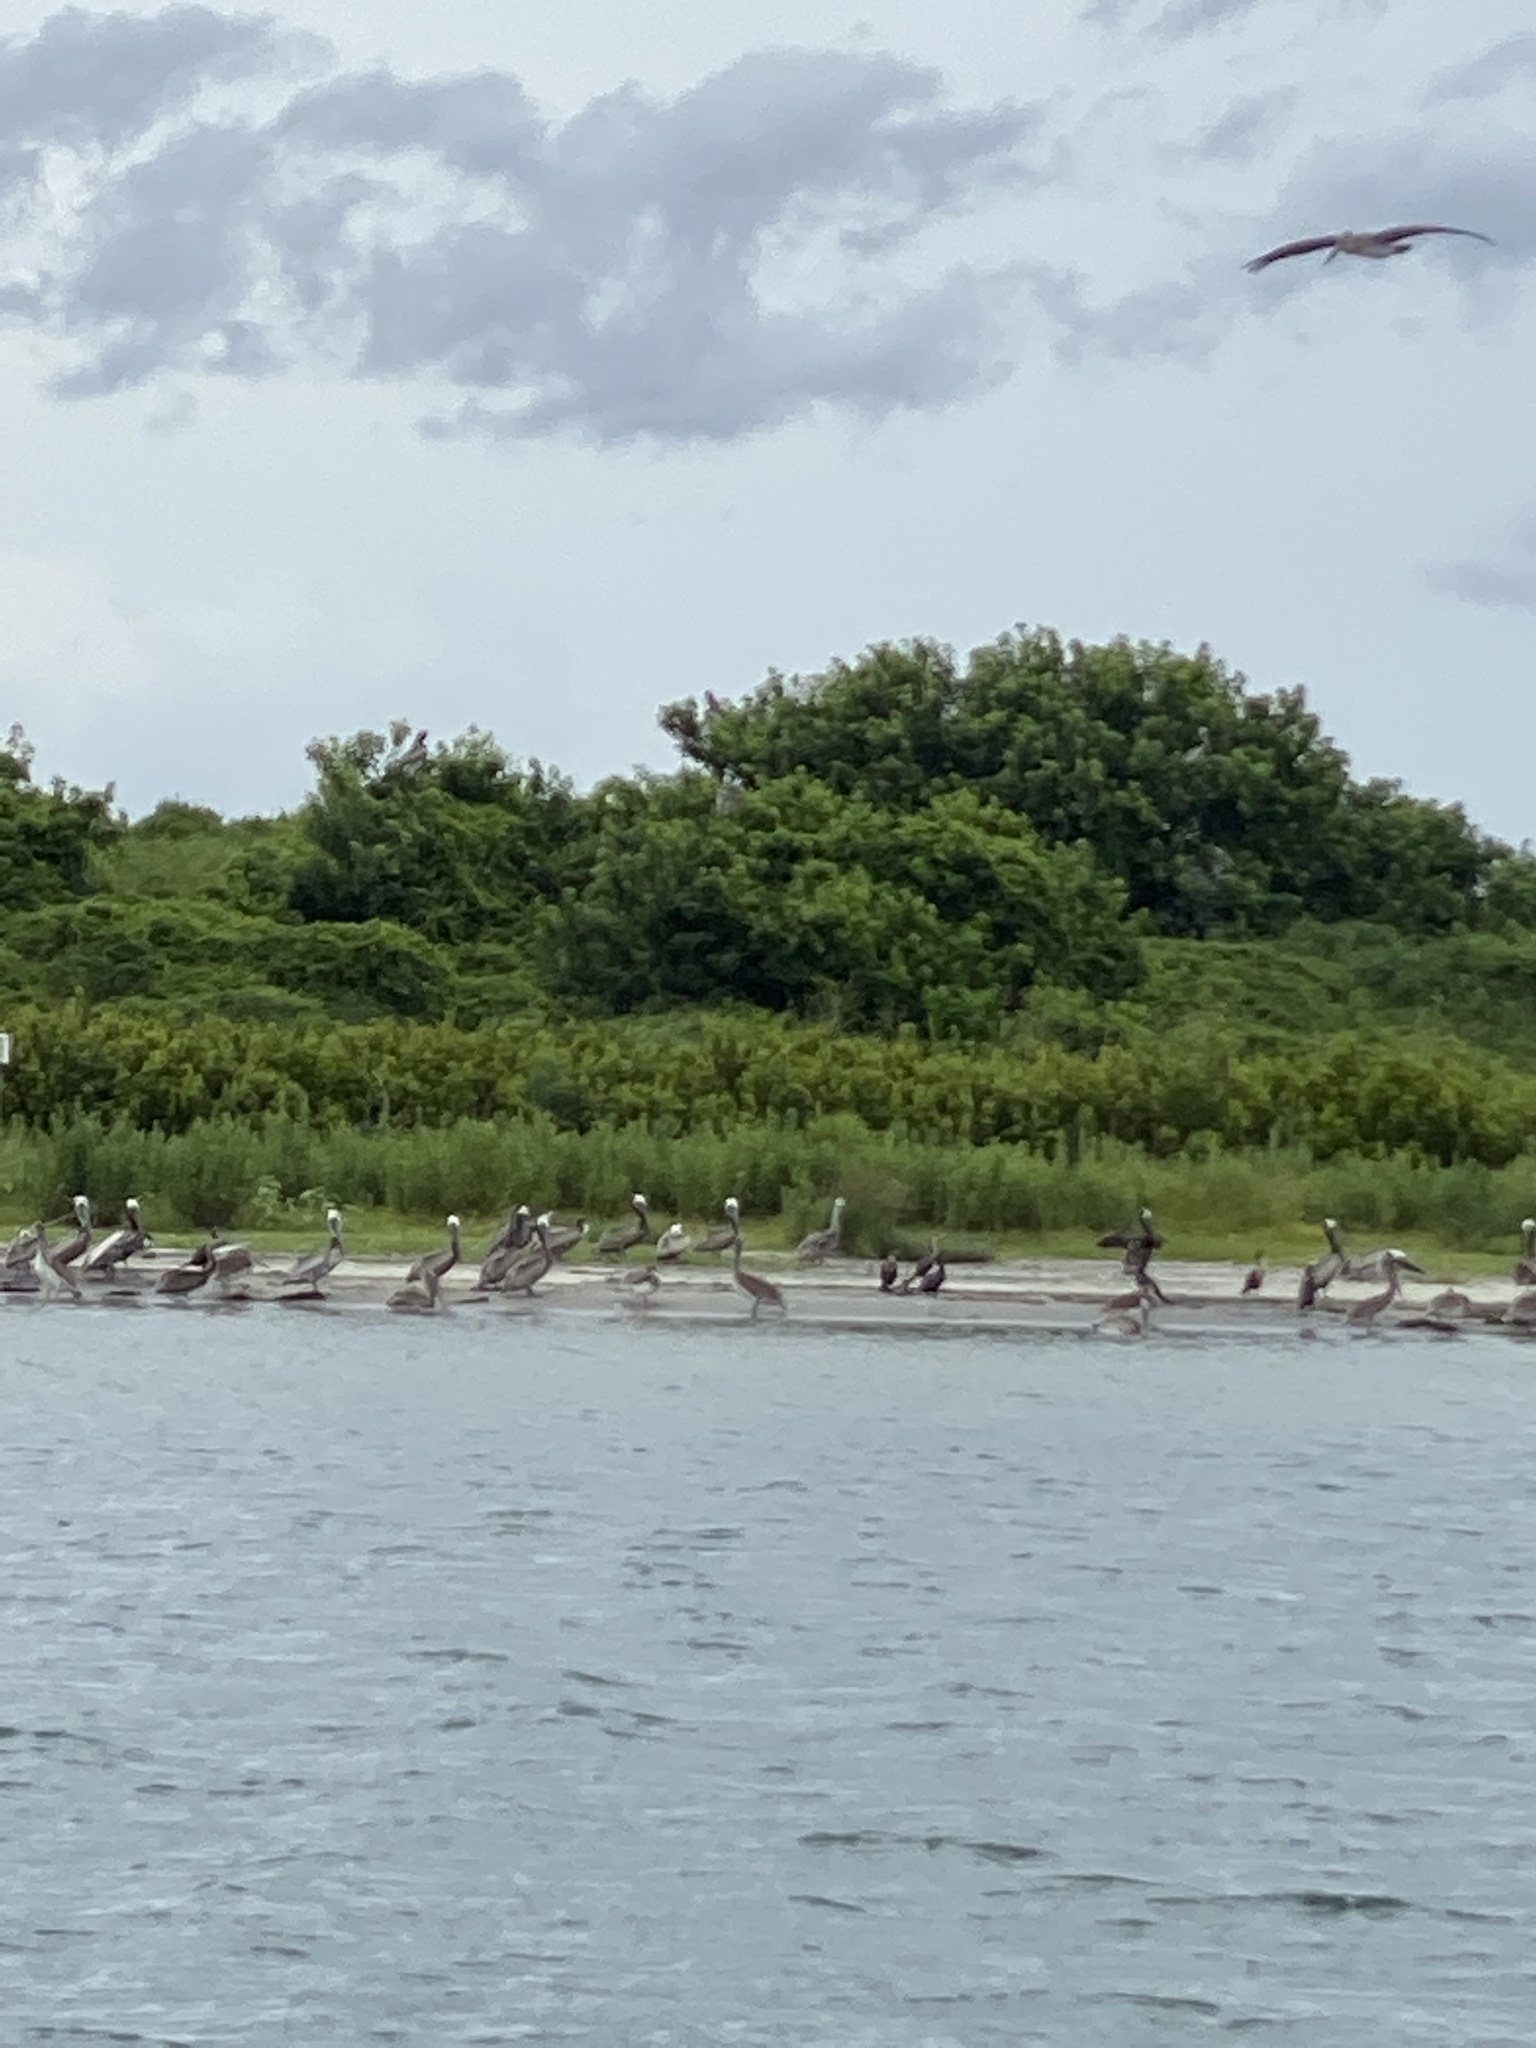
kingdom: Animalia
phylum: Chordata
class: Aves
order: Pelecaniformes
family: Pelecanidae
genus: Pelecanus
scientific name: Pelecanus occidentalis
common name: Brown pelican
